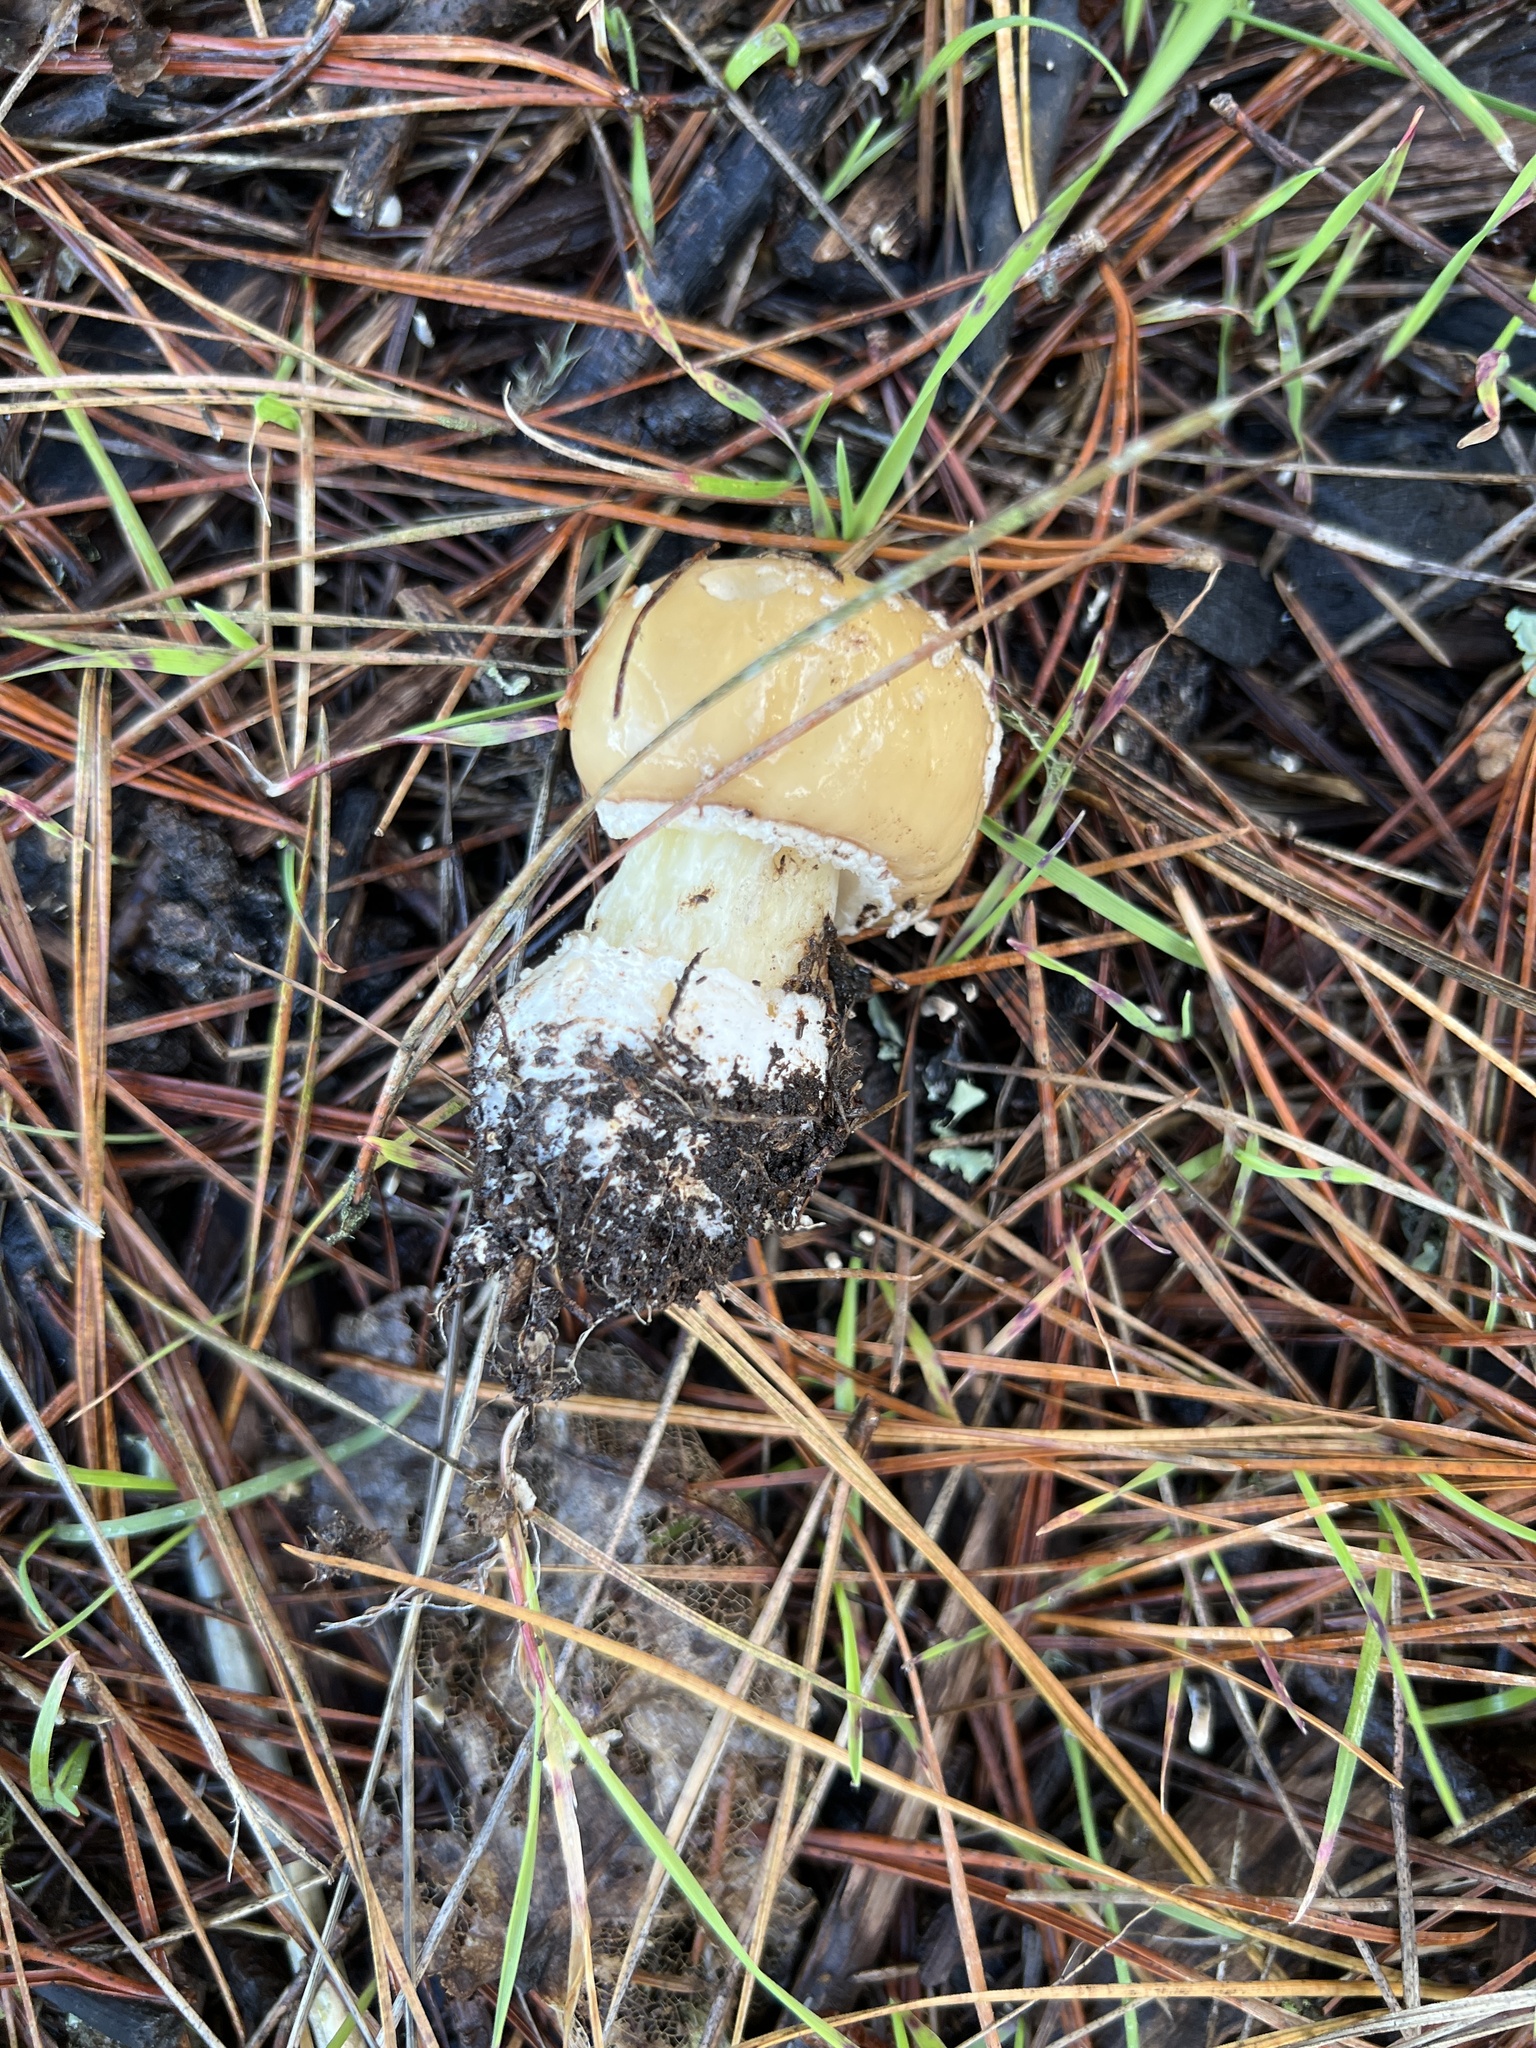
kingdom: Fungi
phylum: Basidiomycota
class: Agaricomycetes
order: Agaricales
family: Amanitaceae
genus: Amanita
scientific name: Amanita pantherina
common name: Panthercap
